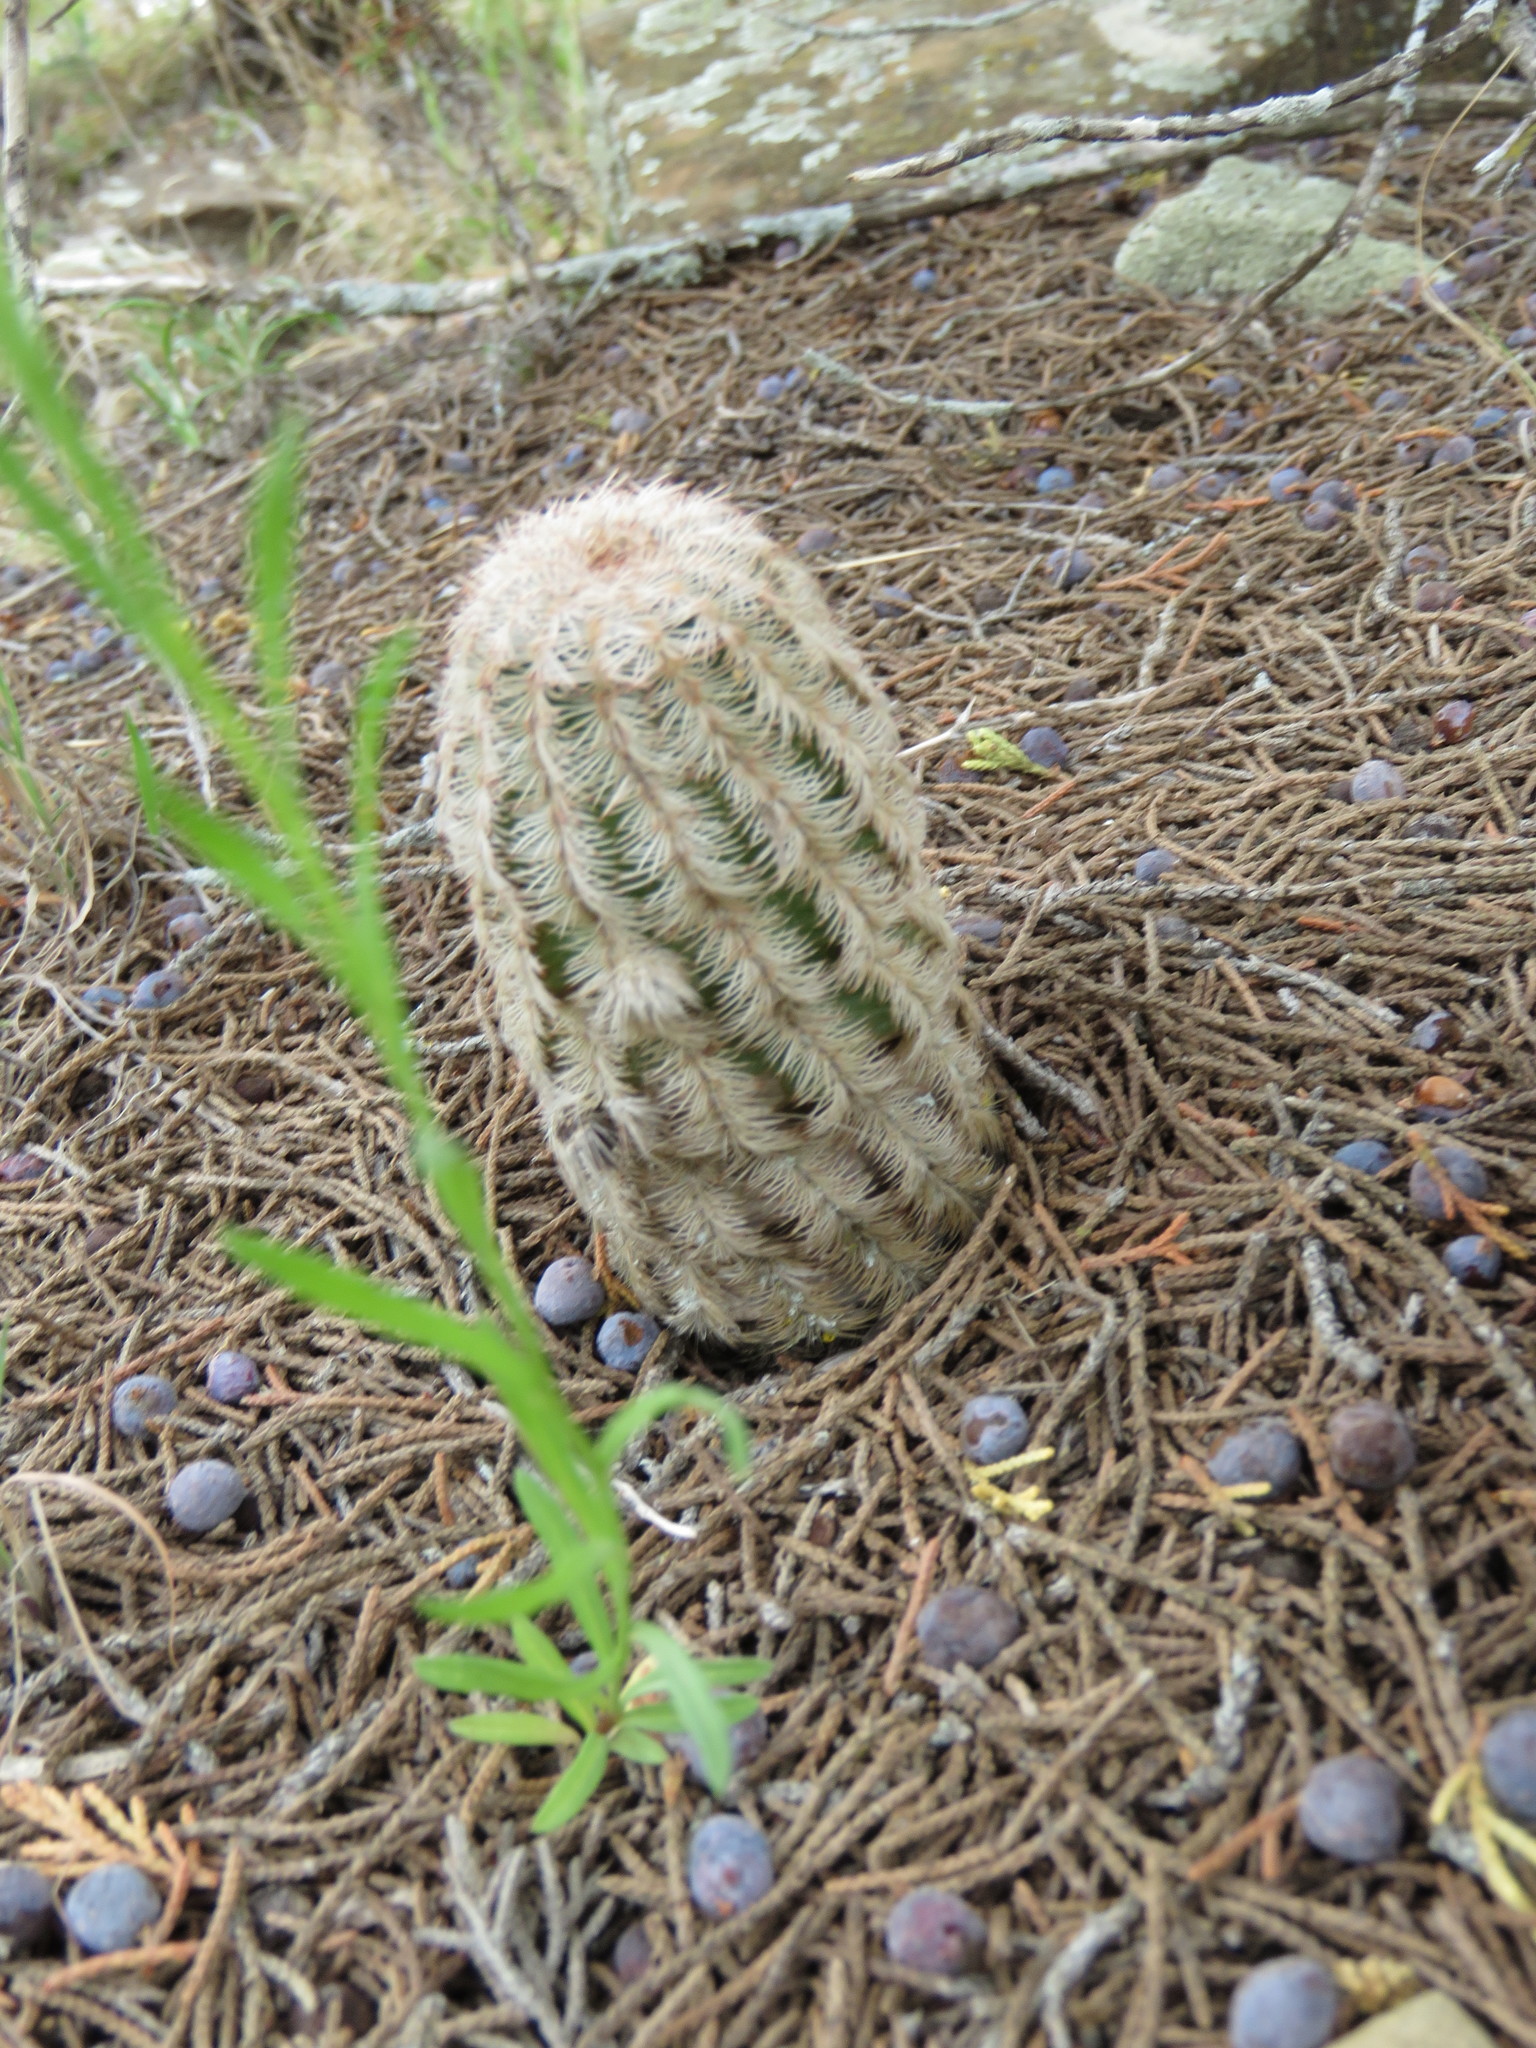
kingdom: Plantae
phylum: Tracheophyta
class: Magnoliopsida
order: Caryophyllales
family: Cactaceae
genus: Echinocereus
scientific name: Echinocereus reichenbachii
